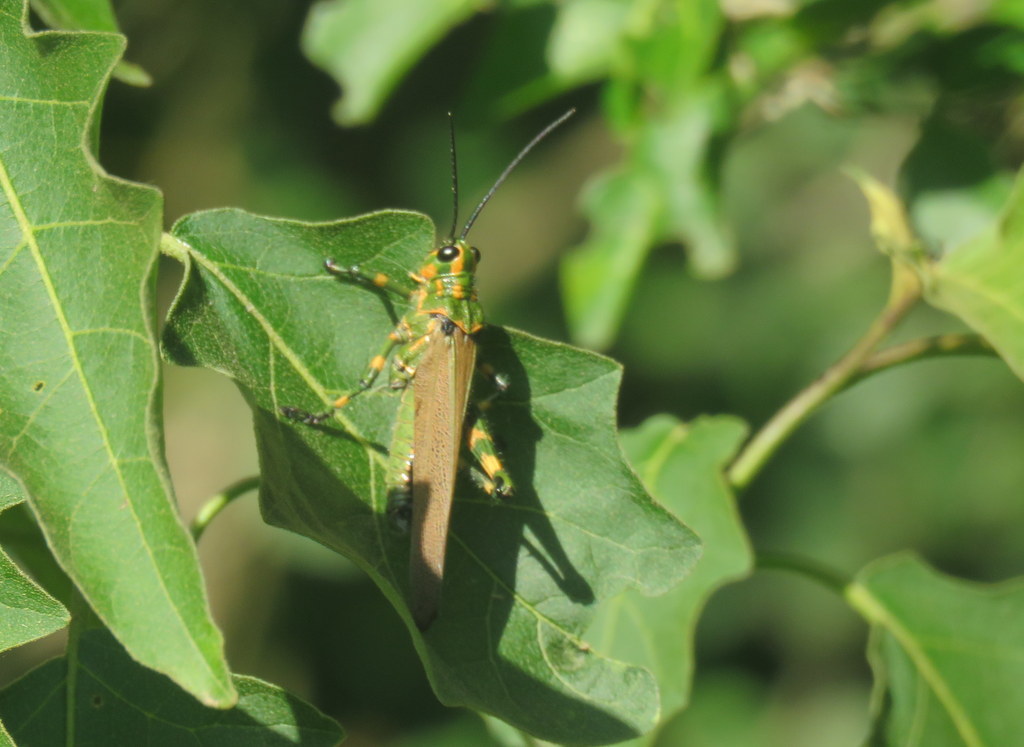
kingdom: Animalia
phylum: Arthropoda
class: Insecta
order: Orthoptera
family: Romaleidae
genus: Chromacris
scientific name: Chromacris speciosa
